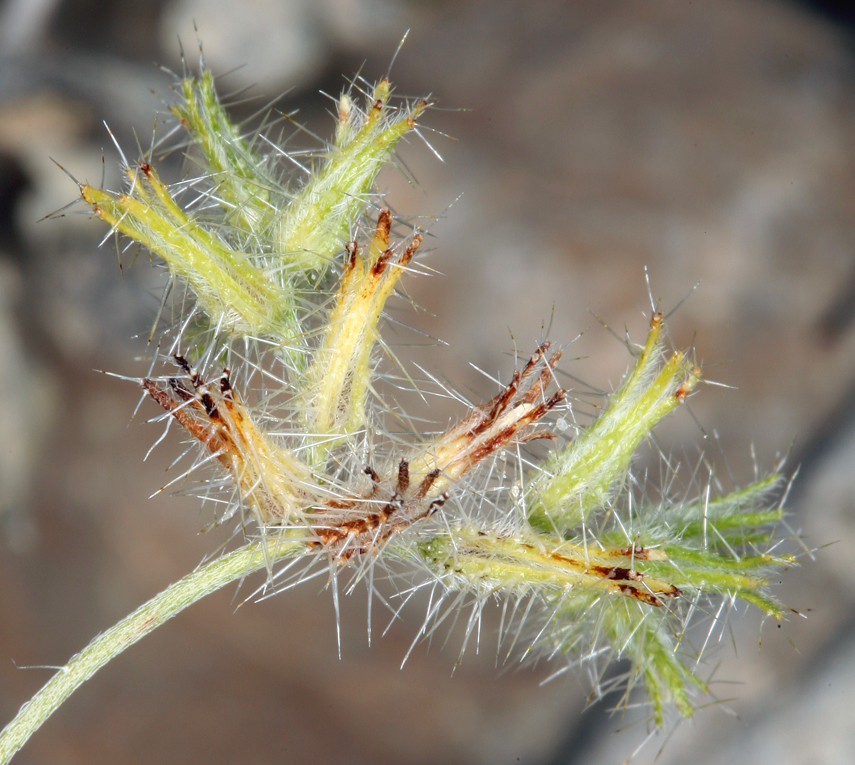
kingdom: Plantae
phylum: Tracheophyta
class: Magnoliopsida
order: Boraginales
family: Boraginaceae
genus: Cryptantha
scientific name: Cryptantha nevadensis
